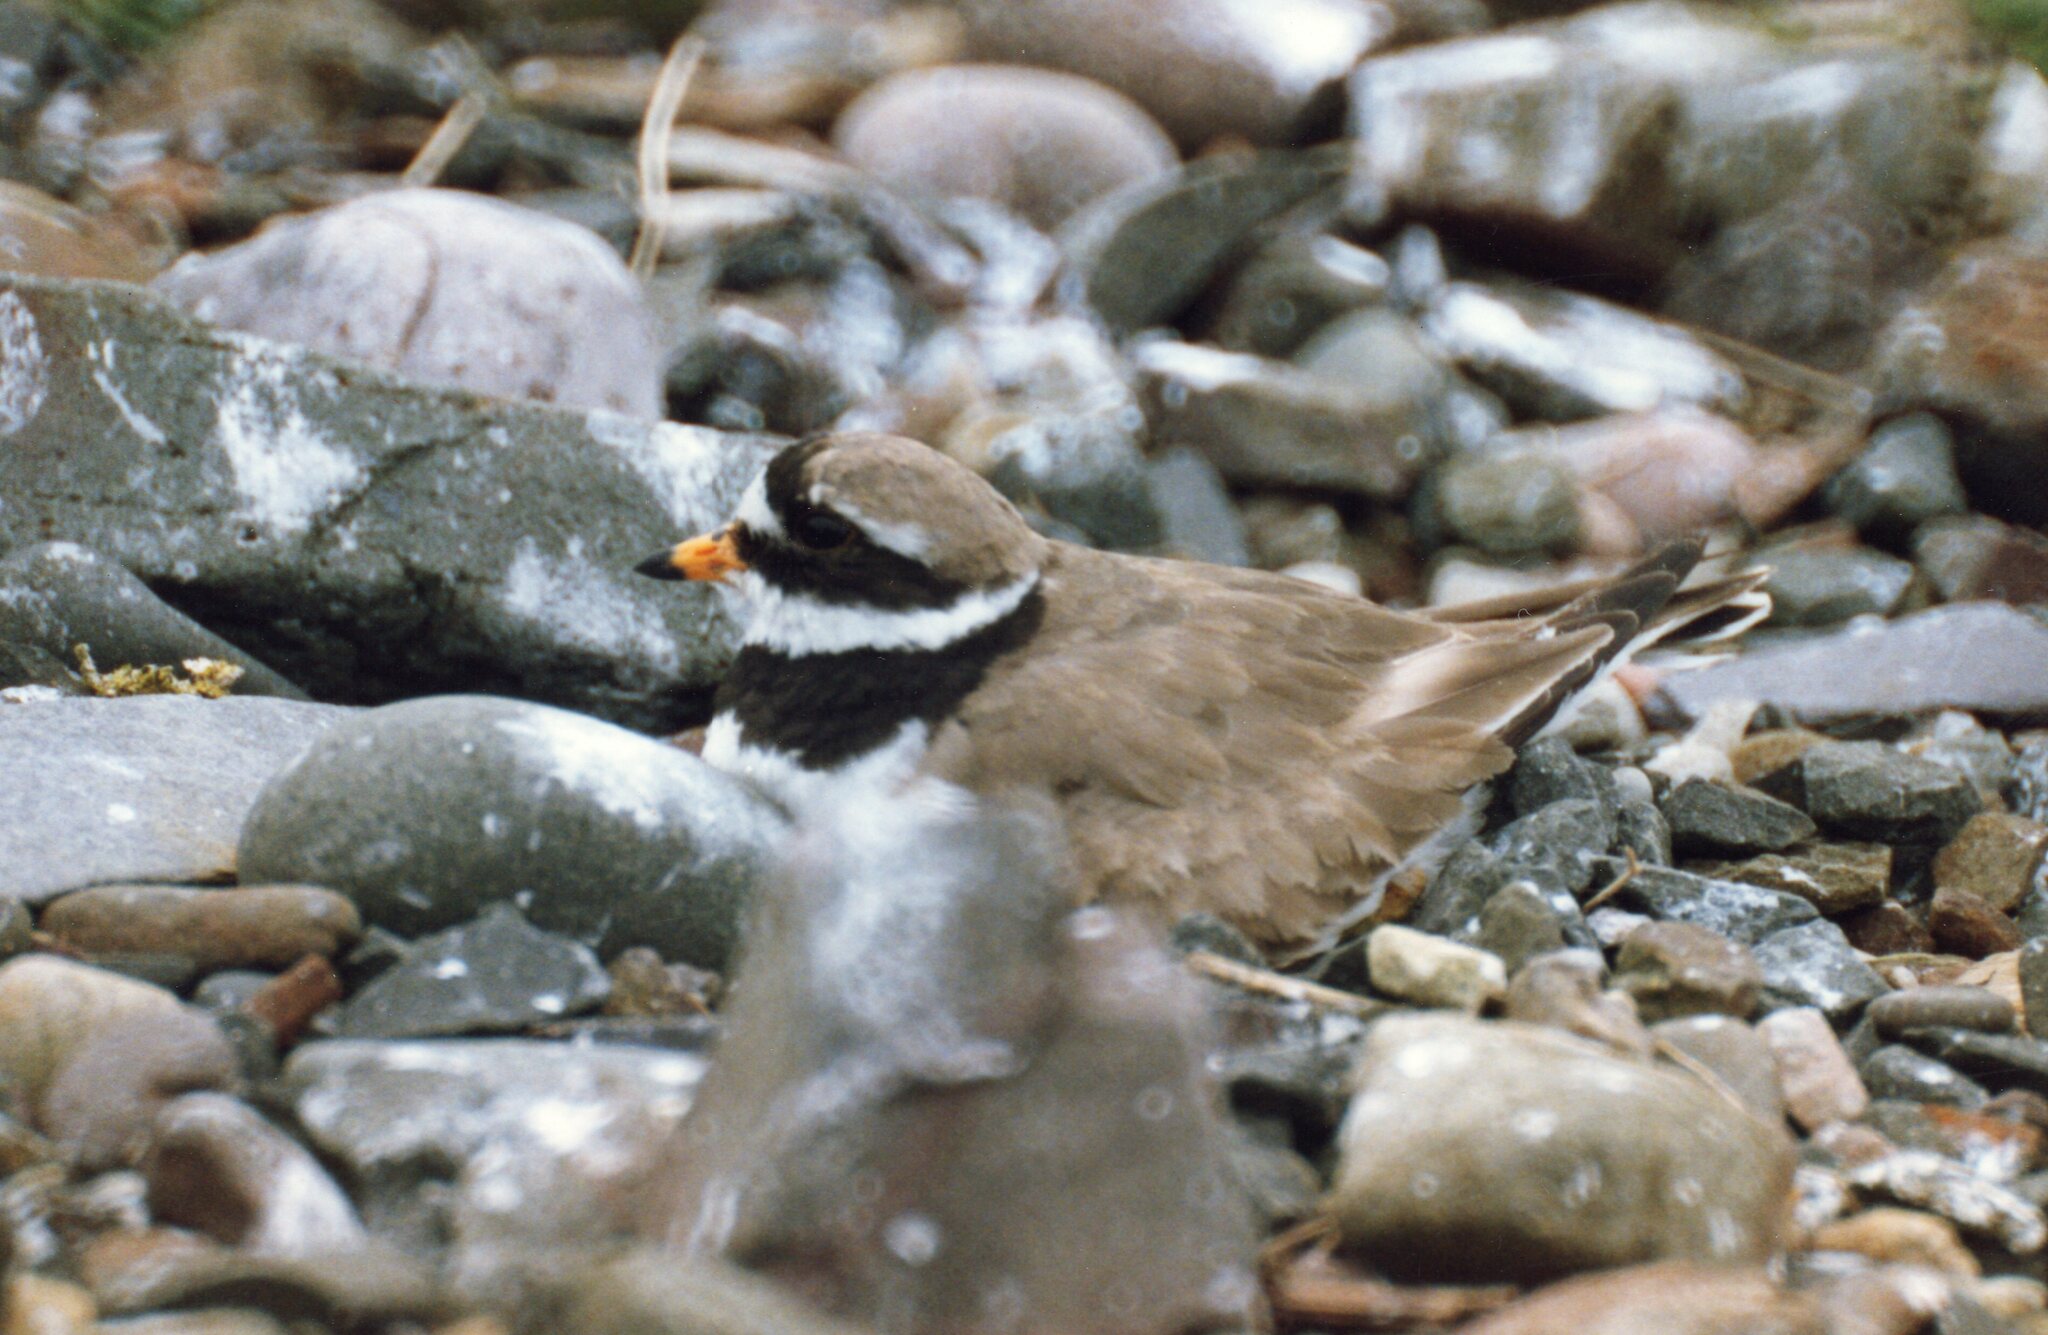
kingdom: Animalia
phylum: Chordata
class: Aves
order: Charadriiformes
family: Charadriidae
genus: Charadrius
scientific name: Charadrius hiaticula
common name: Common ringed plover
